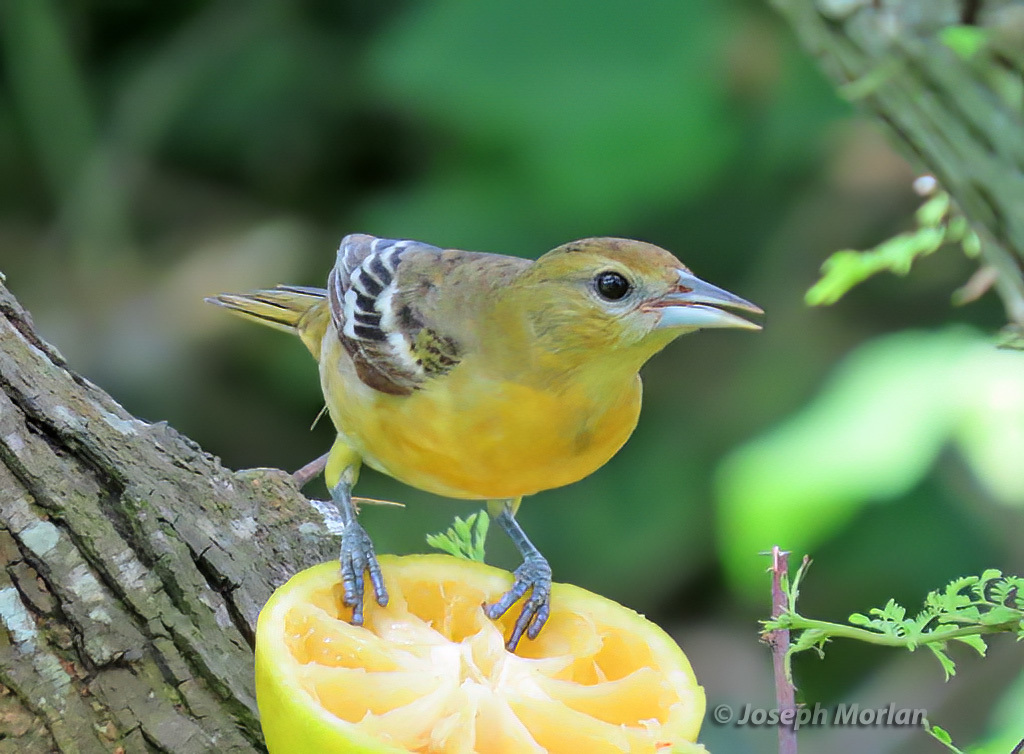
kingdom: Animalia
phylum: Chordata
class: Aves
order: Passeriformes
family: Icteridae
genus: Icterus
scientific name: Icterus galbula
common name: Baltimore oriole
